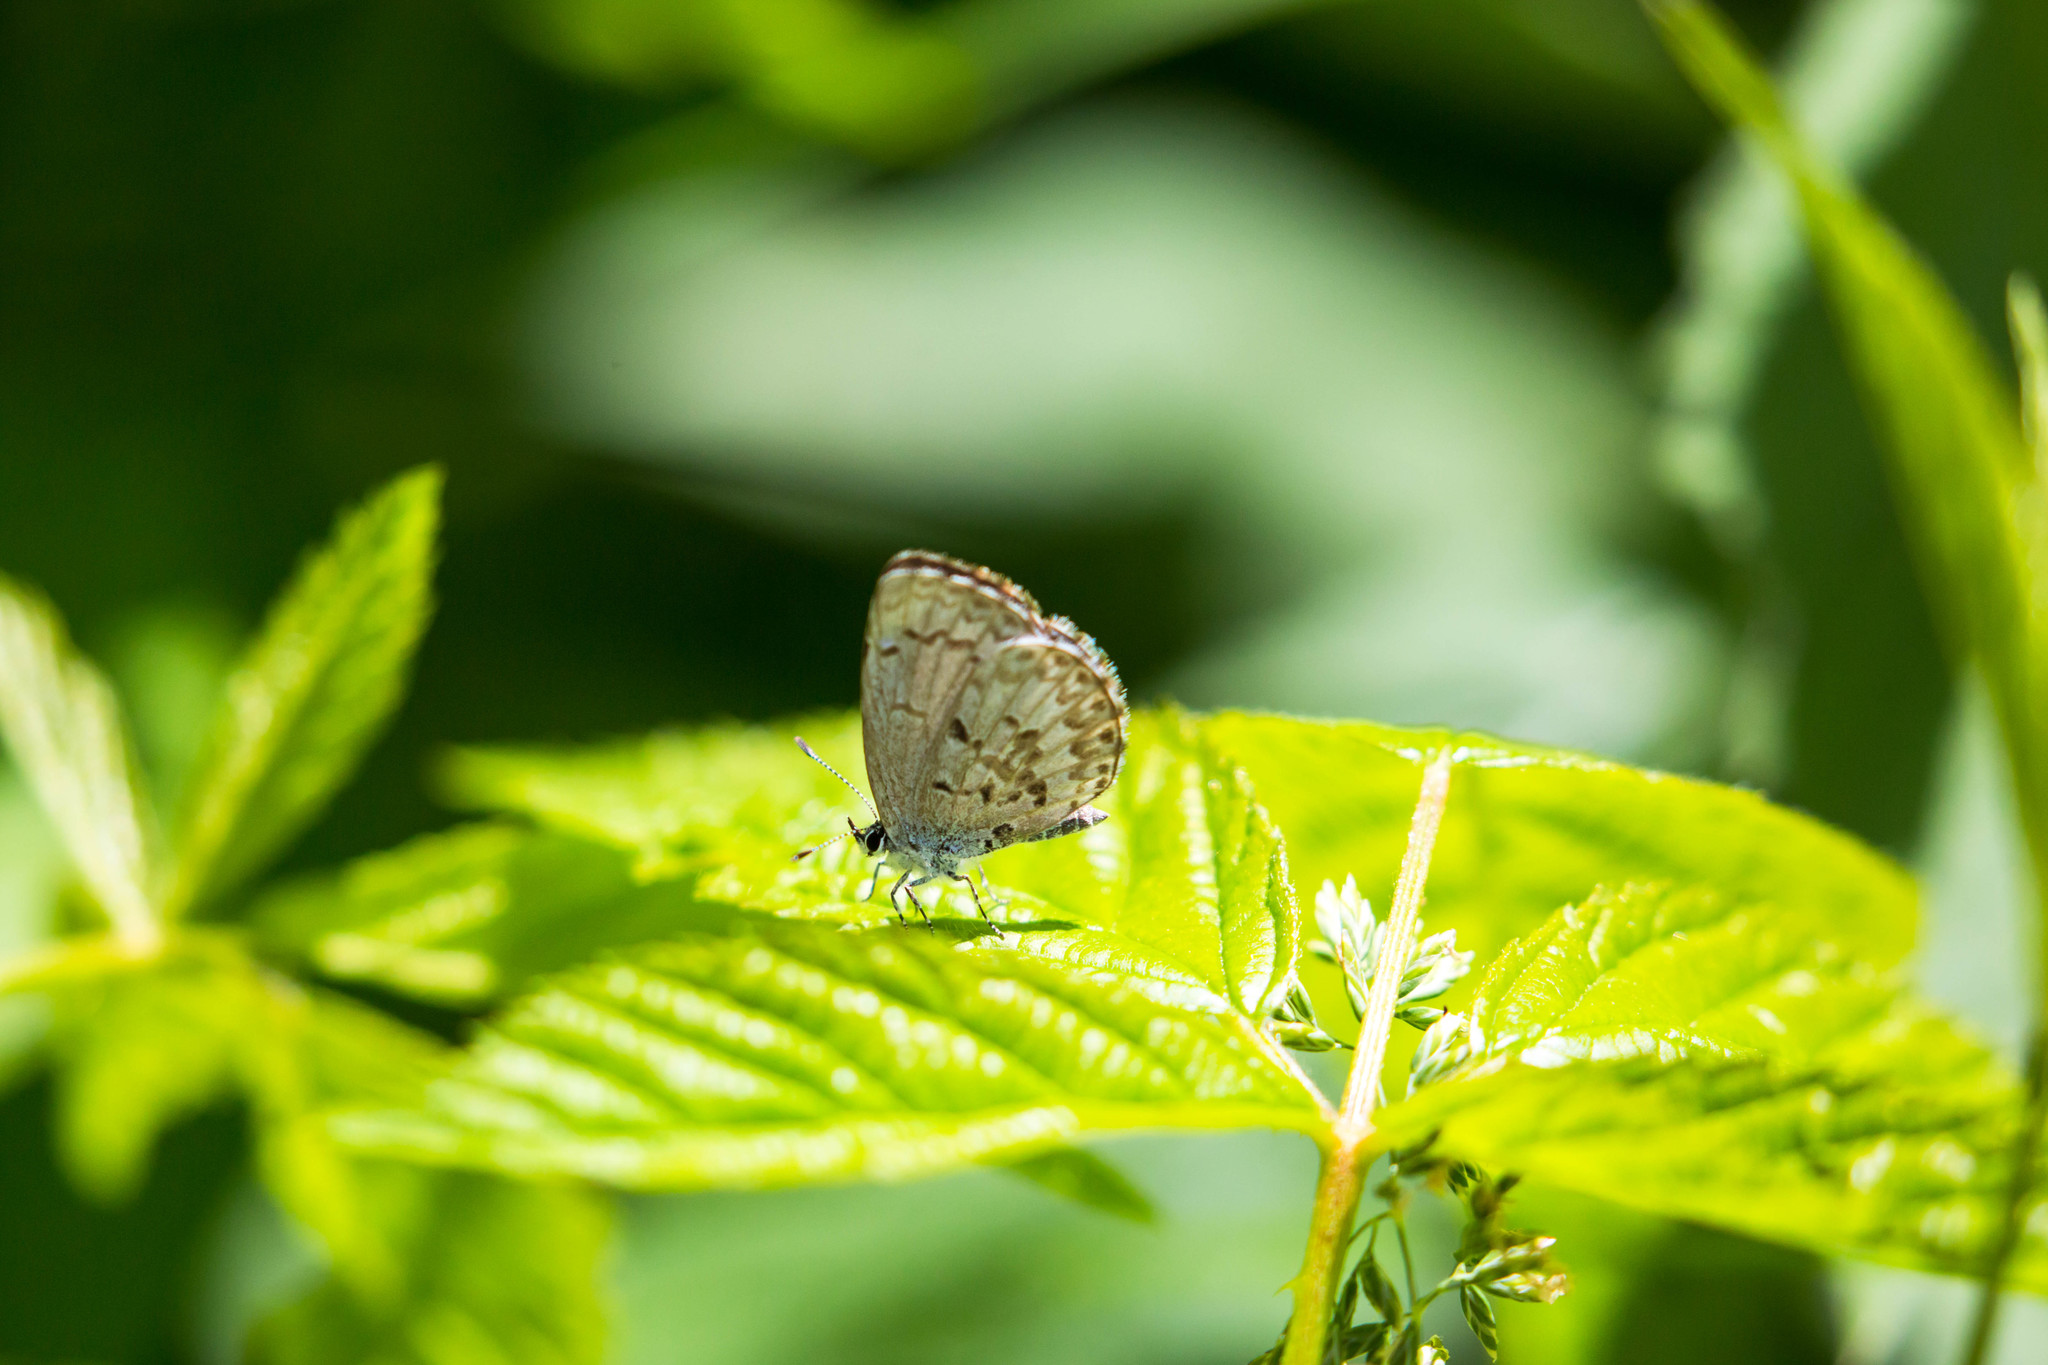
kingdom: Animalia
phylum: Arthropoda
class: Insecta
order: Lepidoptera
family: Lycaenidae
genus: Celastrina
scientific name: Celastrina lucia
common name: Lucia azure
